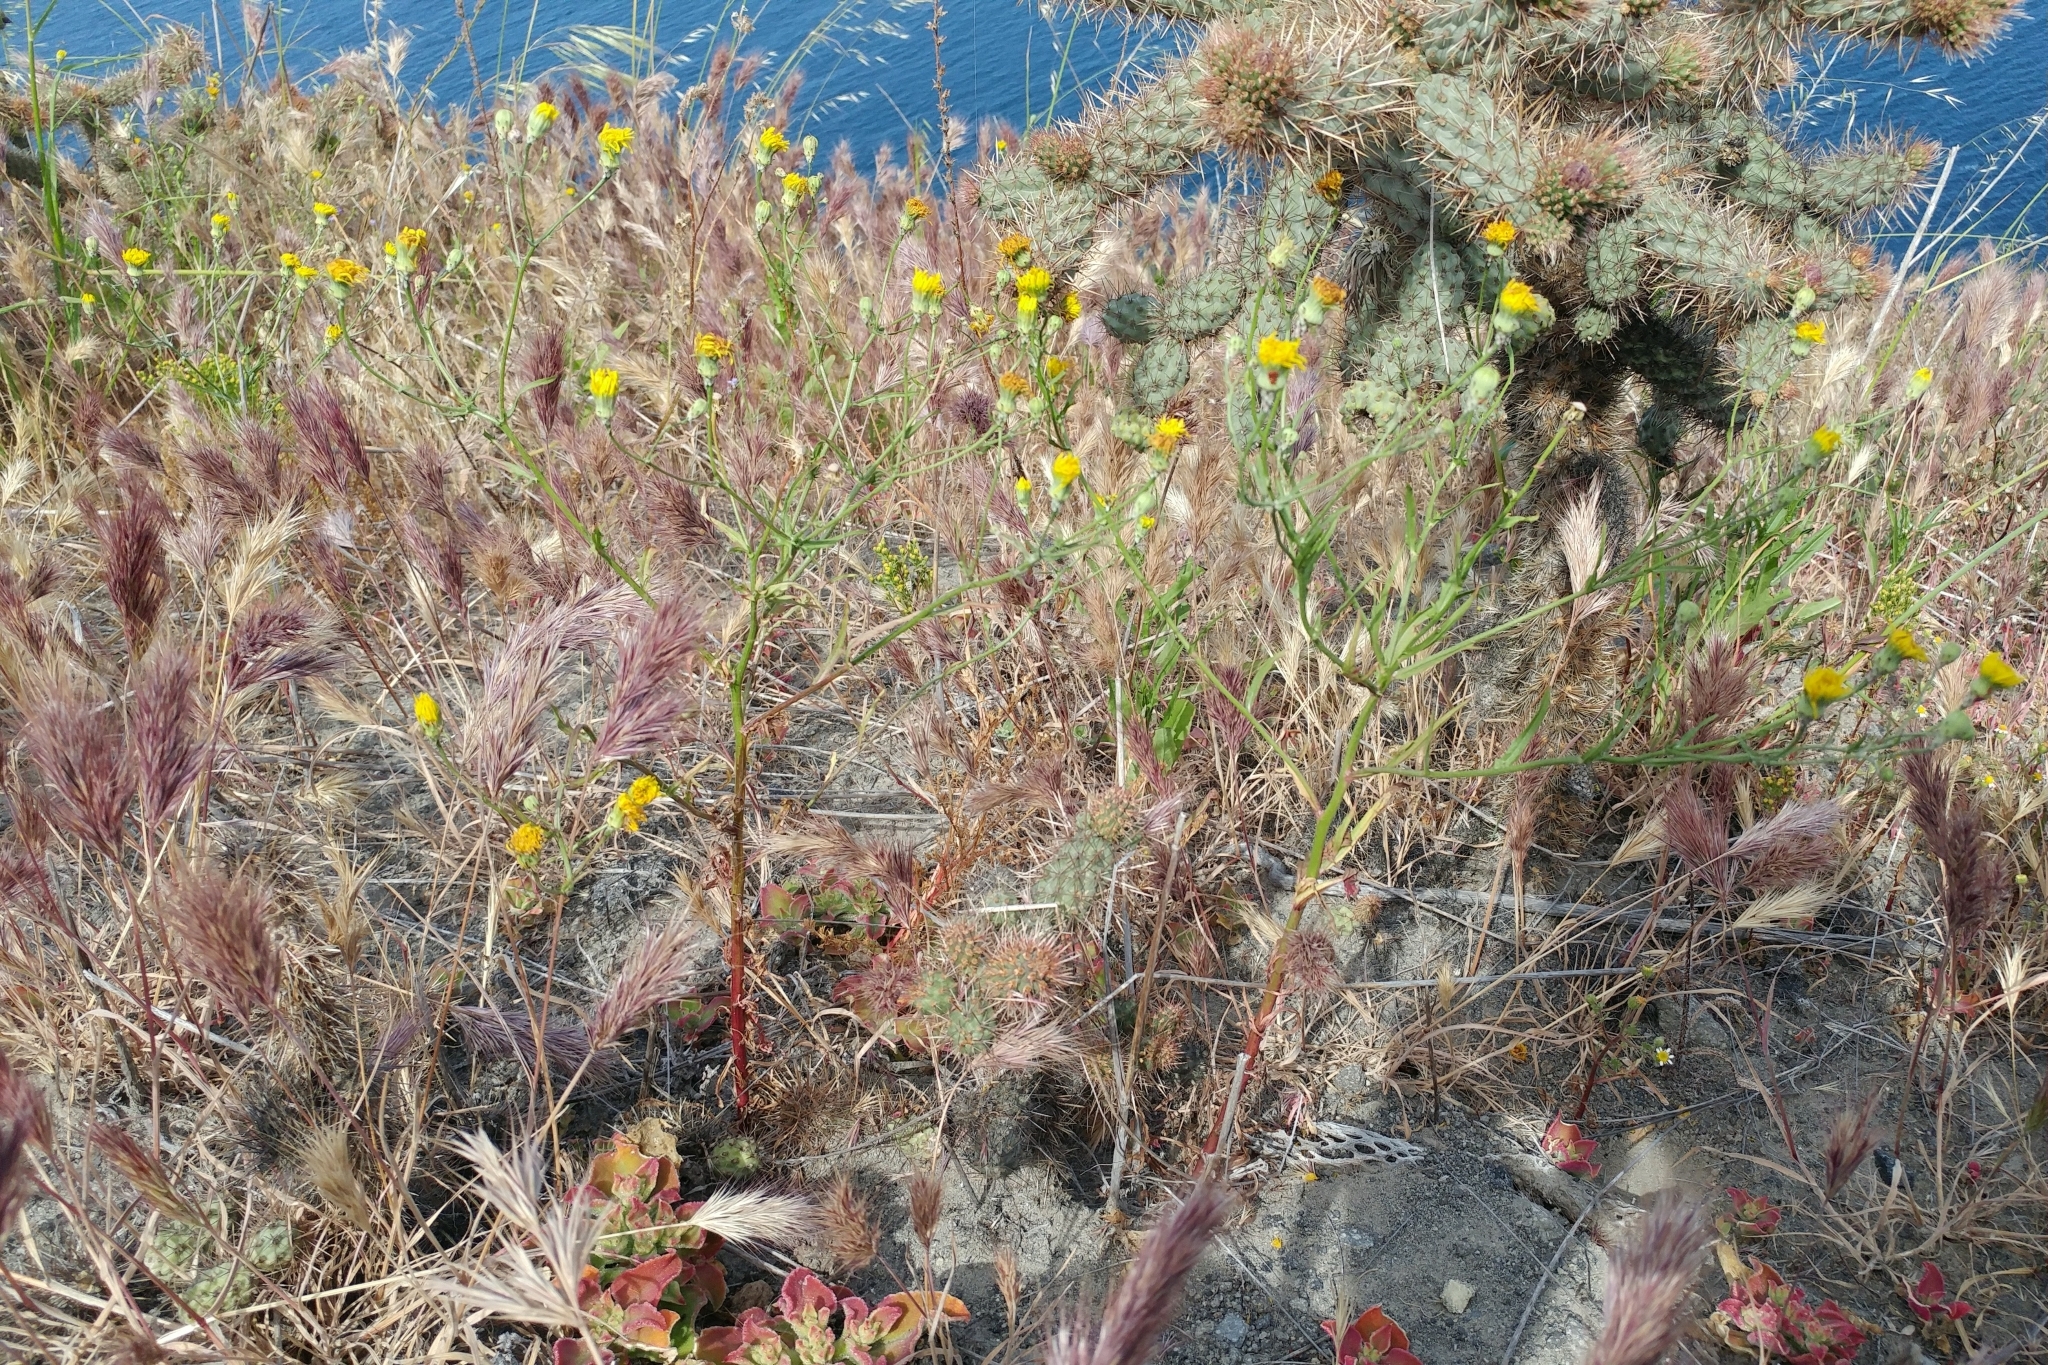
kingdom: Plantae
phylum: Tracheophyta
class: Magnoliopsida
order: Asterales
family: Asteraceae
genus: Malacothrix
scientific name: Malacothrix foliosa
